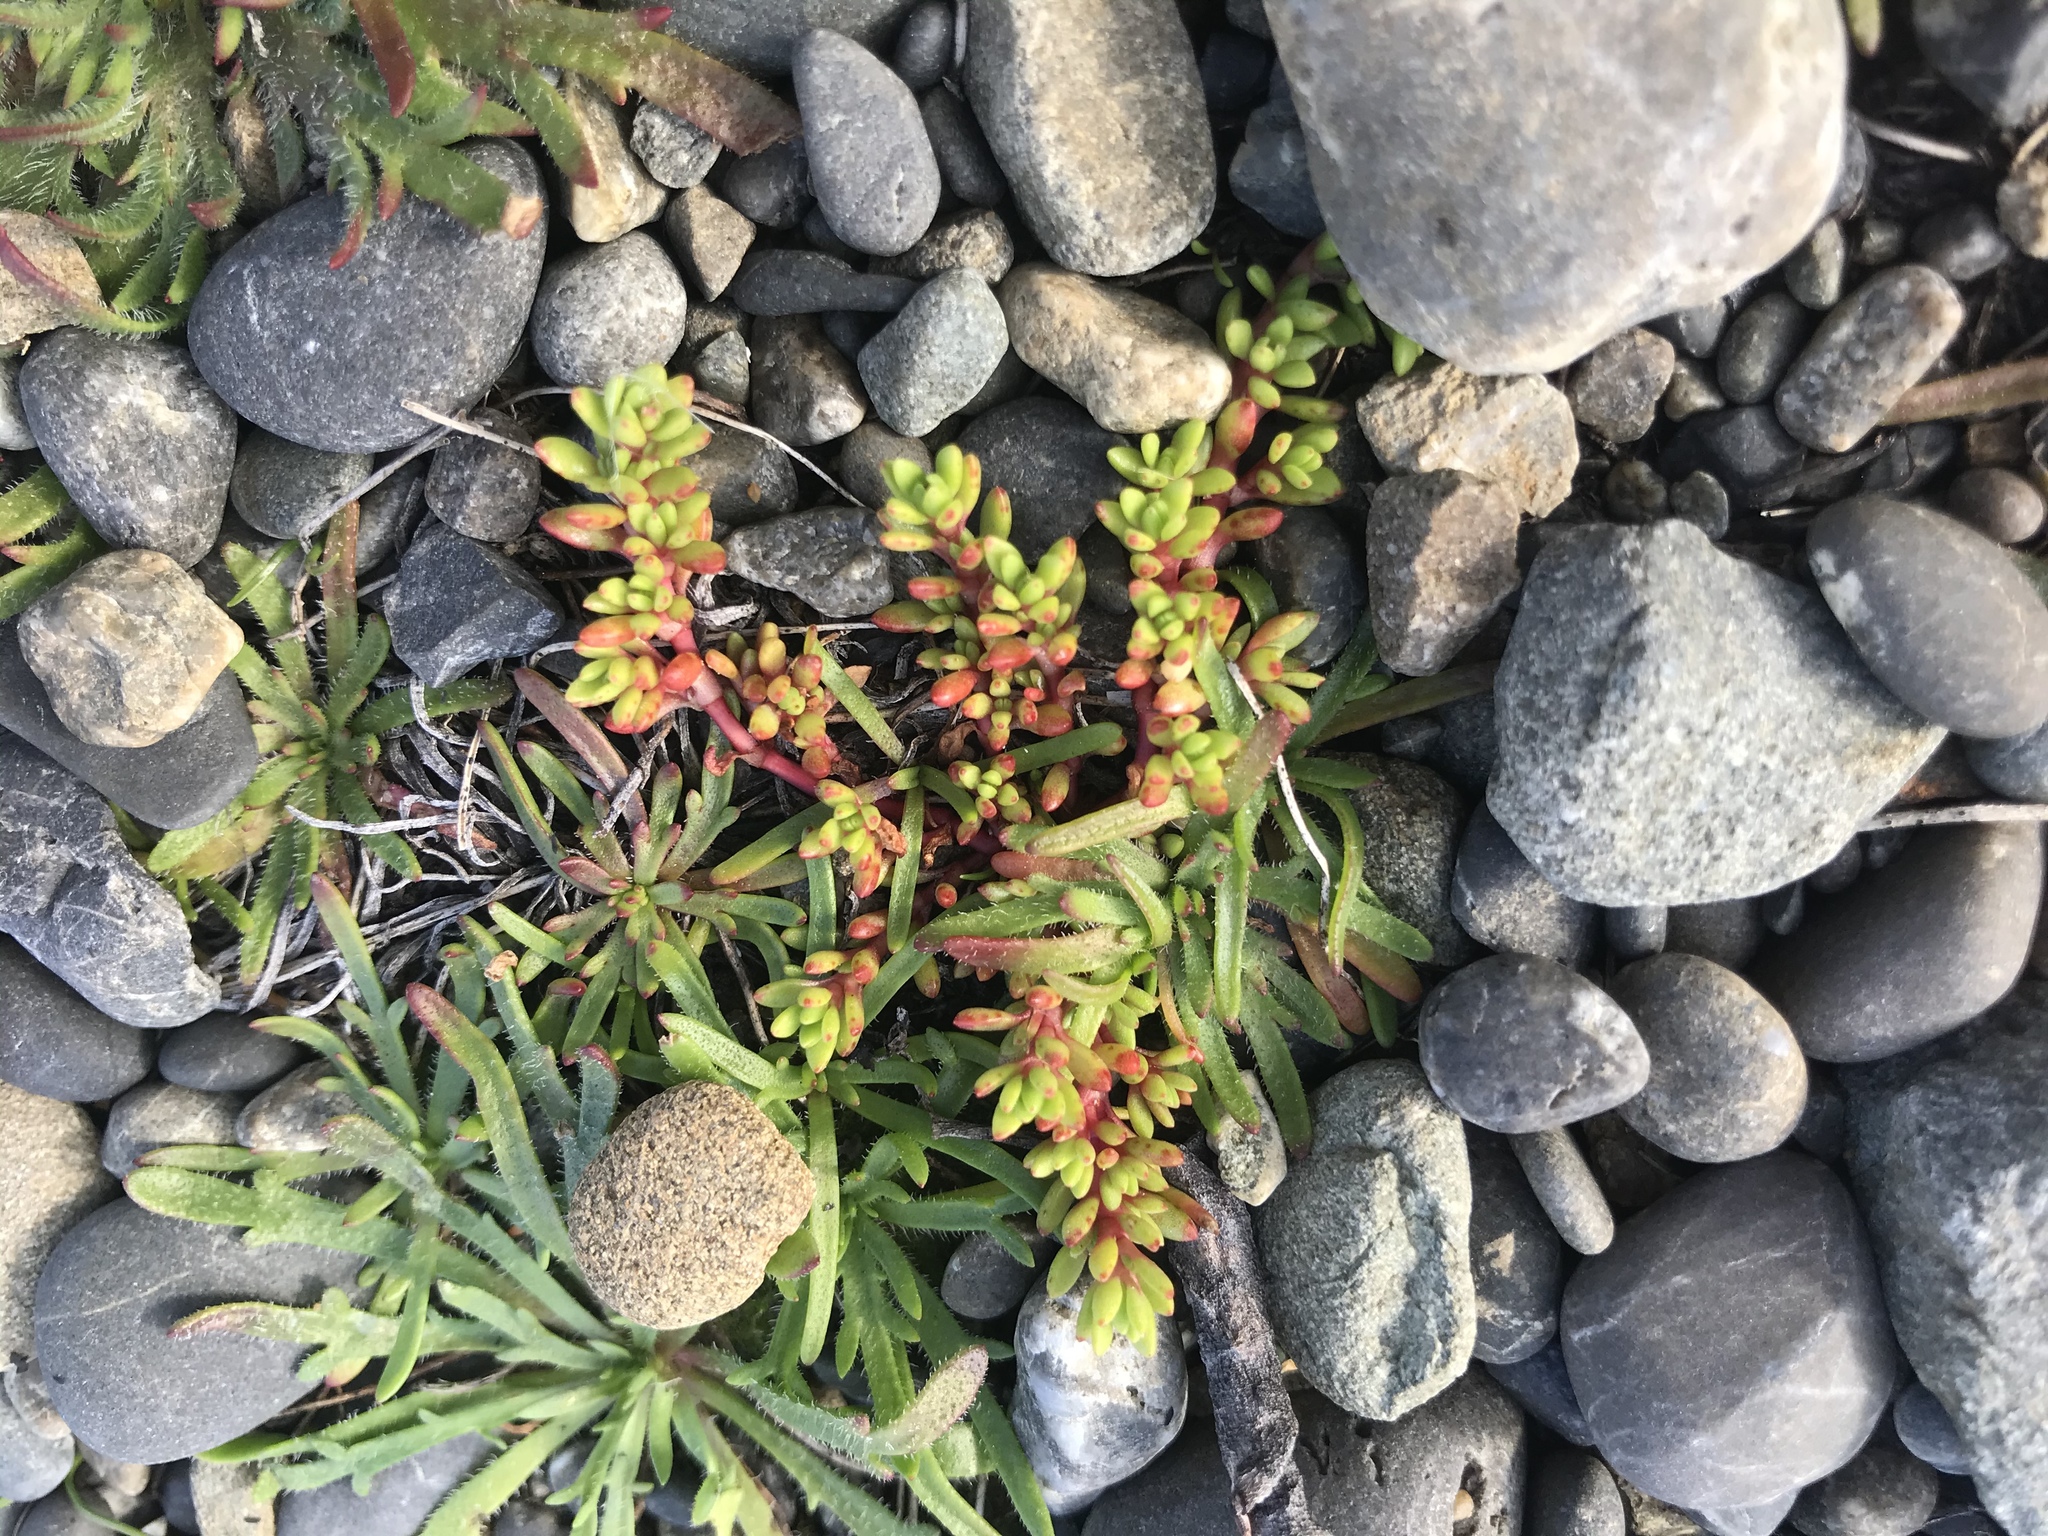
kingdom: Plantae
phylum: Tracheophyta
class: Magnoliopsida
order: Saxifragales
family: Crassulaceae
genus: Crassula
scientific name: Crassula moschata
